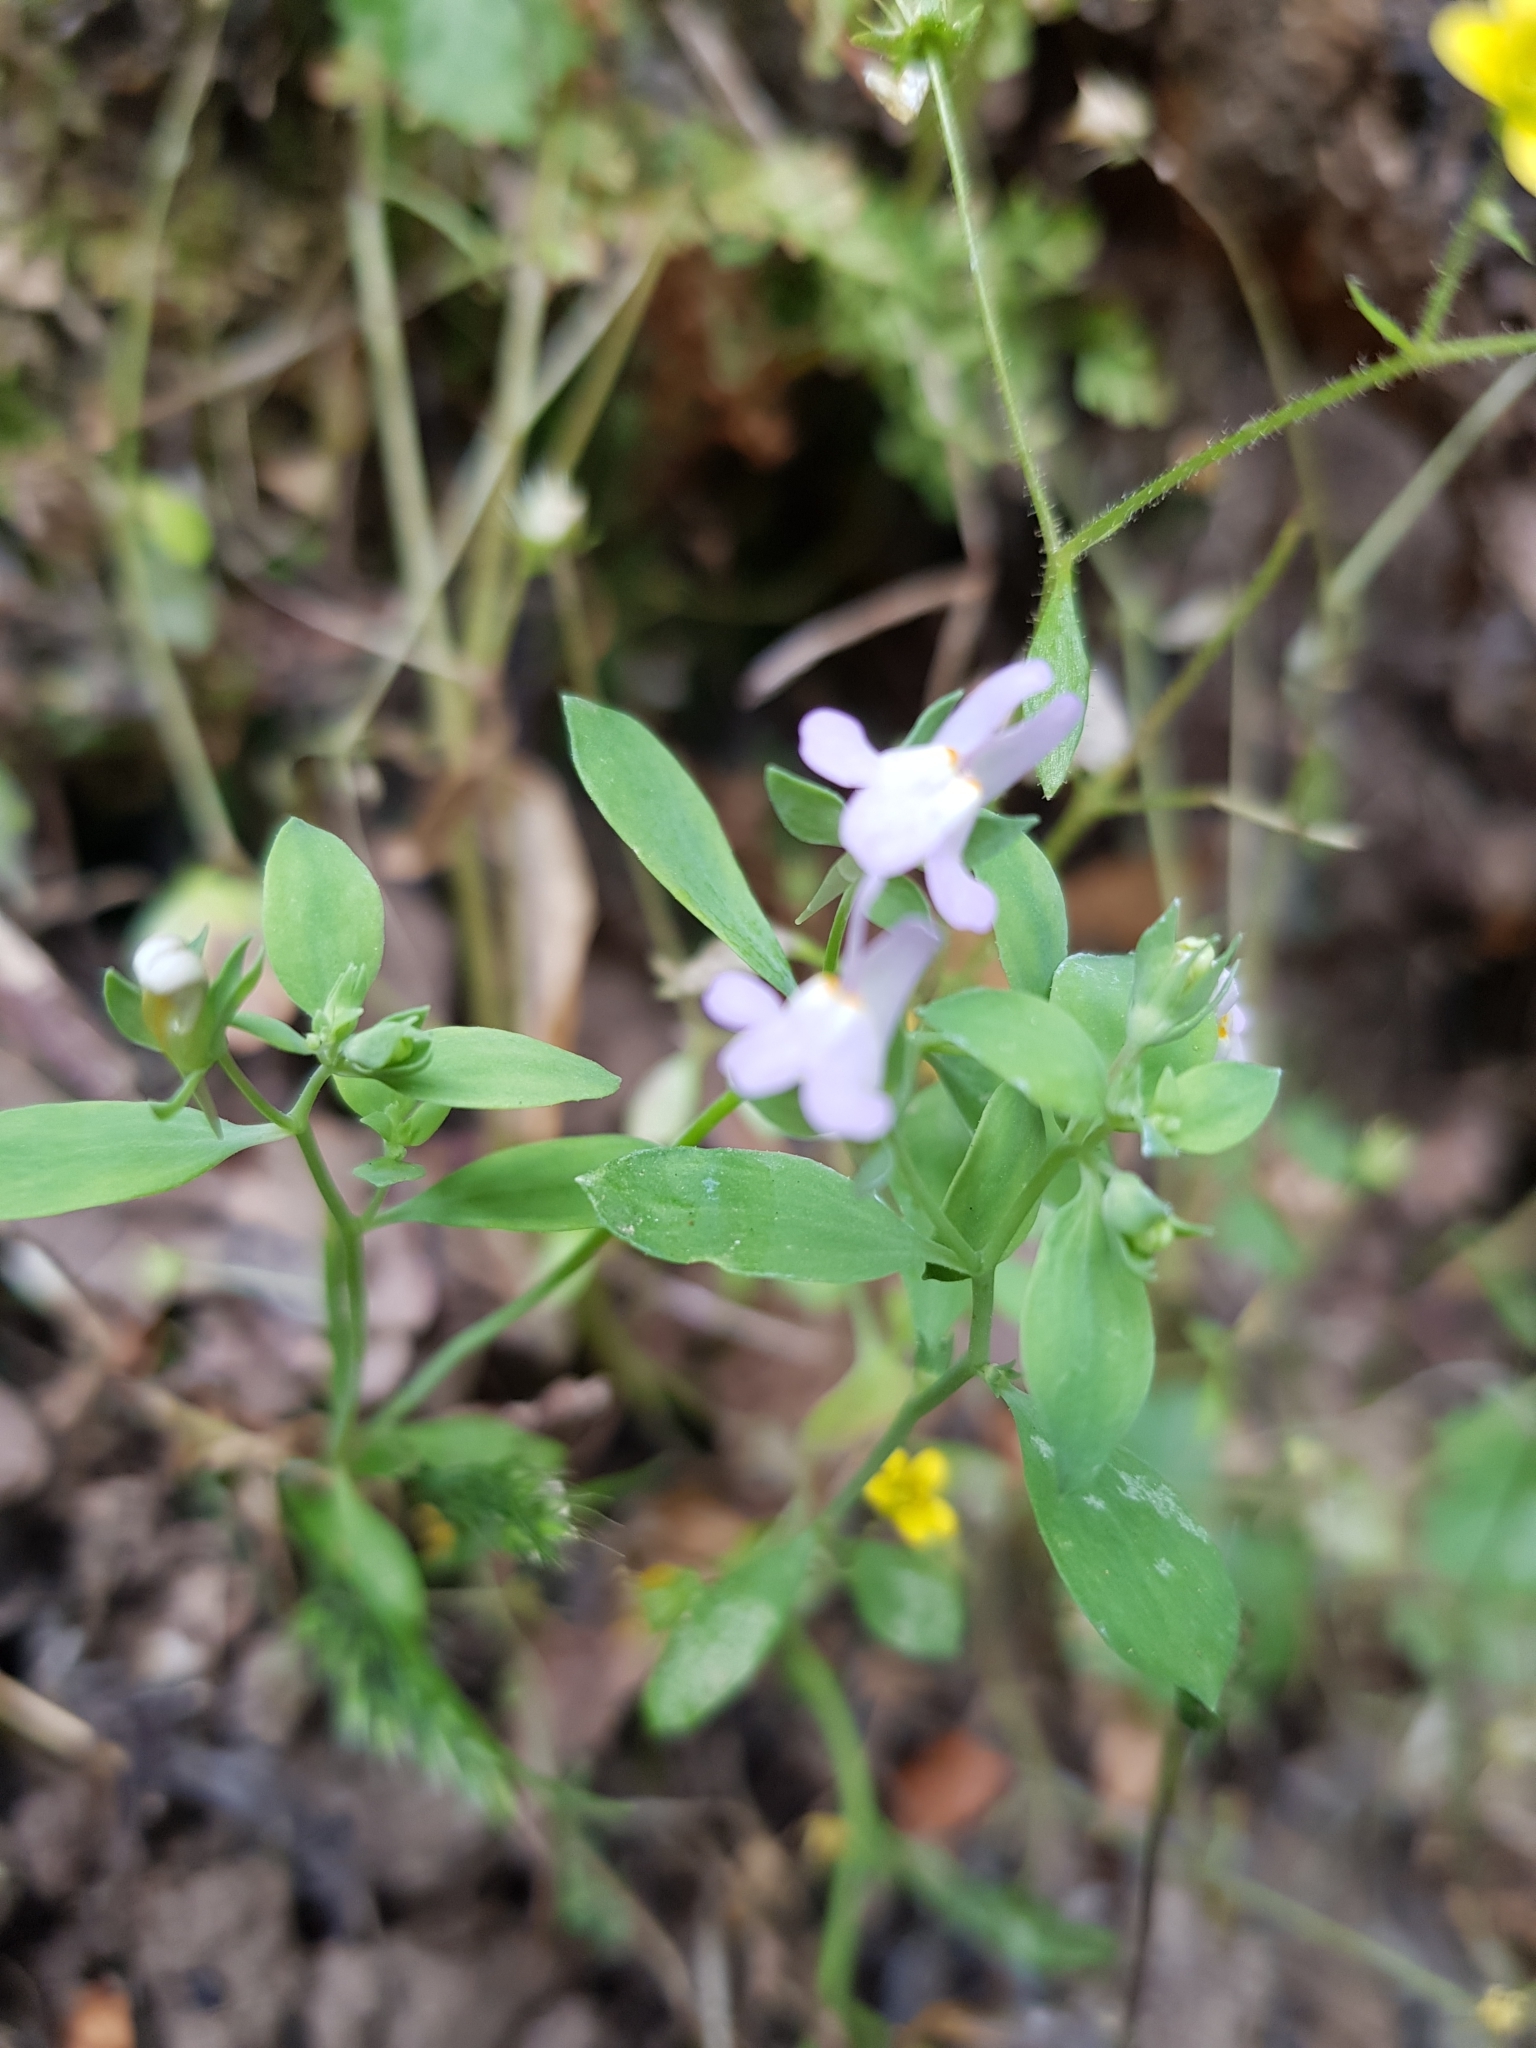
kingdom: Plantae
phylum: Tracheophyta
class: Magnoliopsida
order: Lamiales
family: Plantaginaceae
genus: Linaria
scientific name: Linaria reflexa
